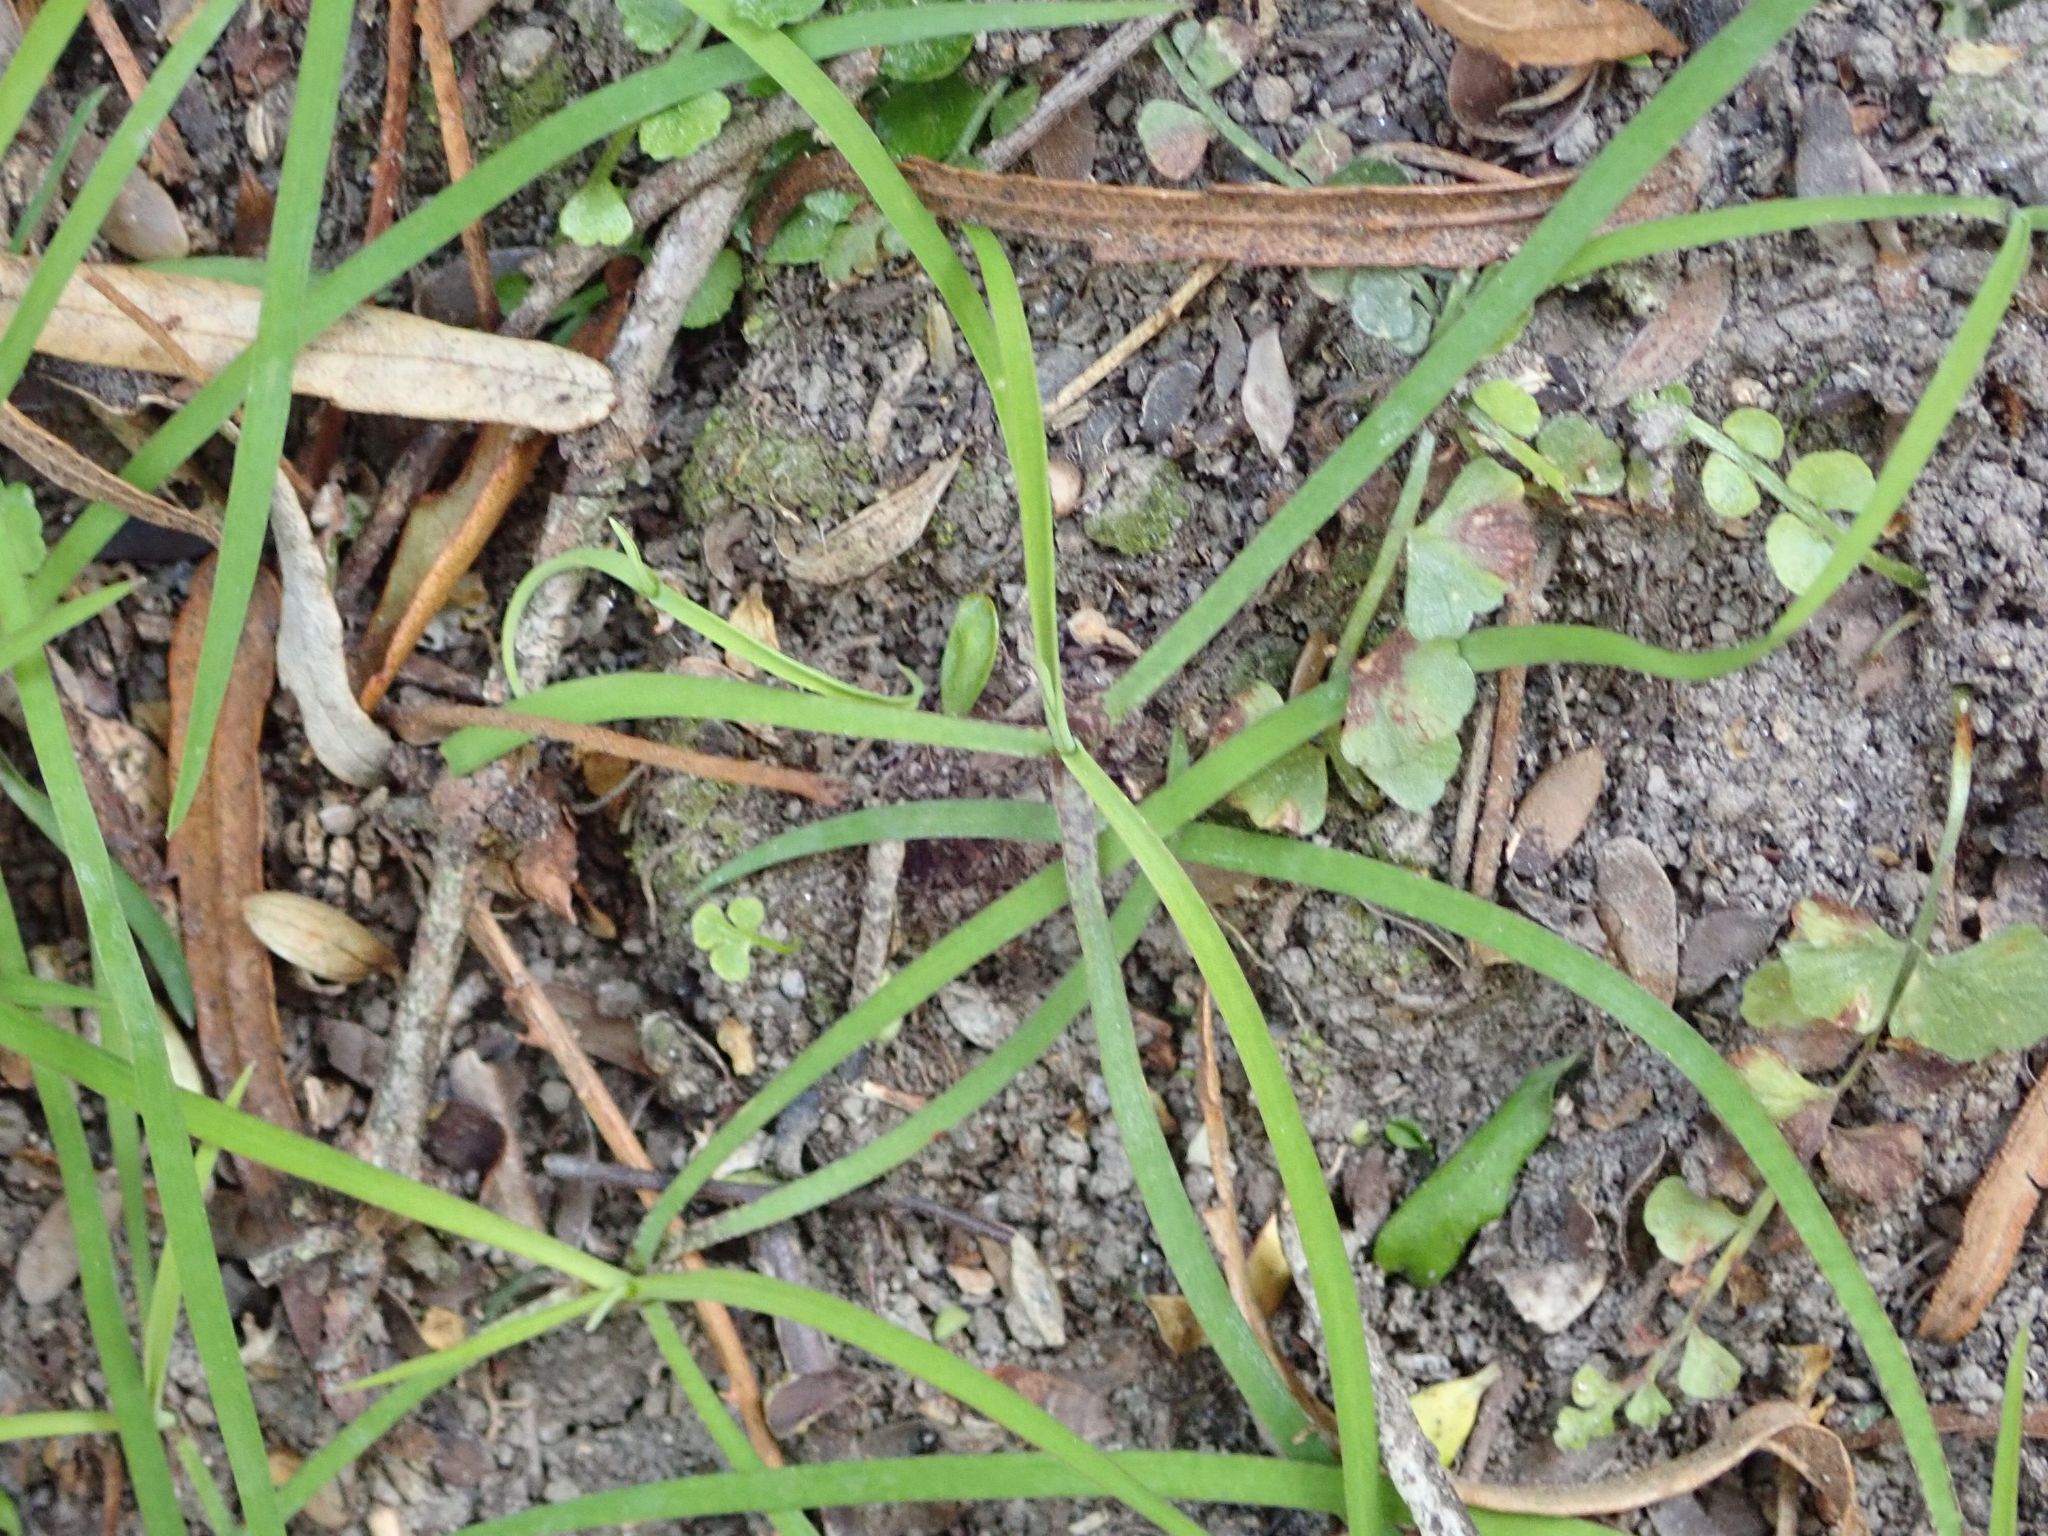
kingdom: Plantae
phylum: Tracheophyta
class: Liliopsida
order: Asparagales
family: Asparagaceae
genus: Arthropodium
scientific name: Arthropodium candidum
